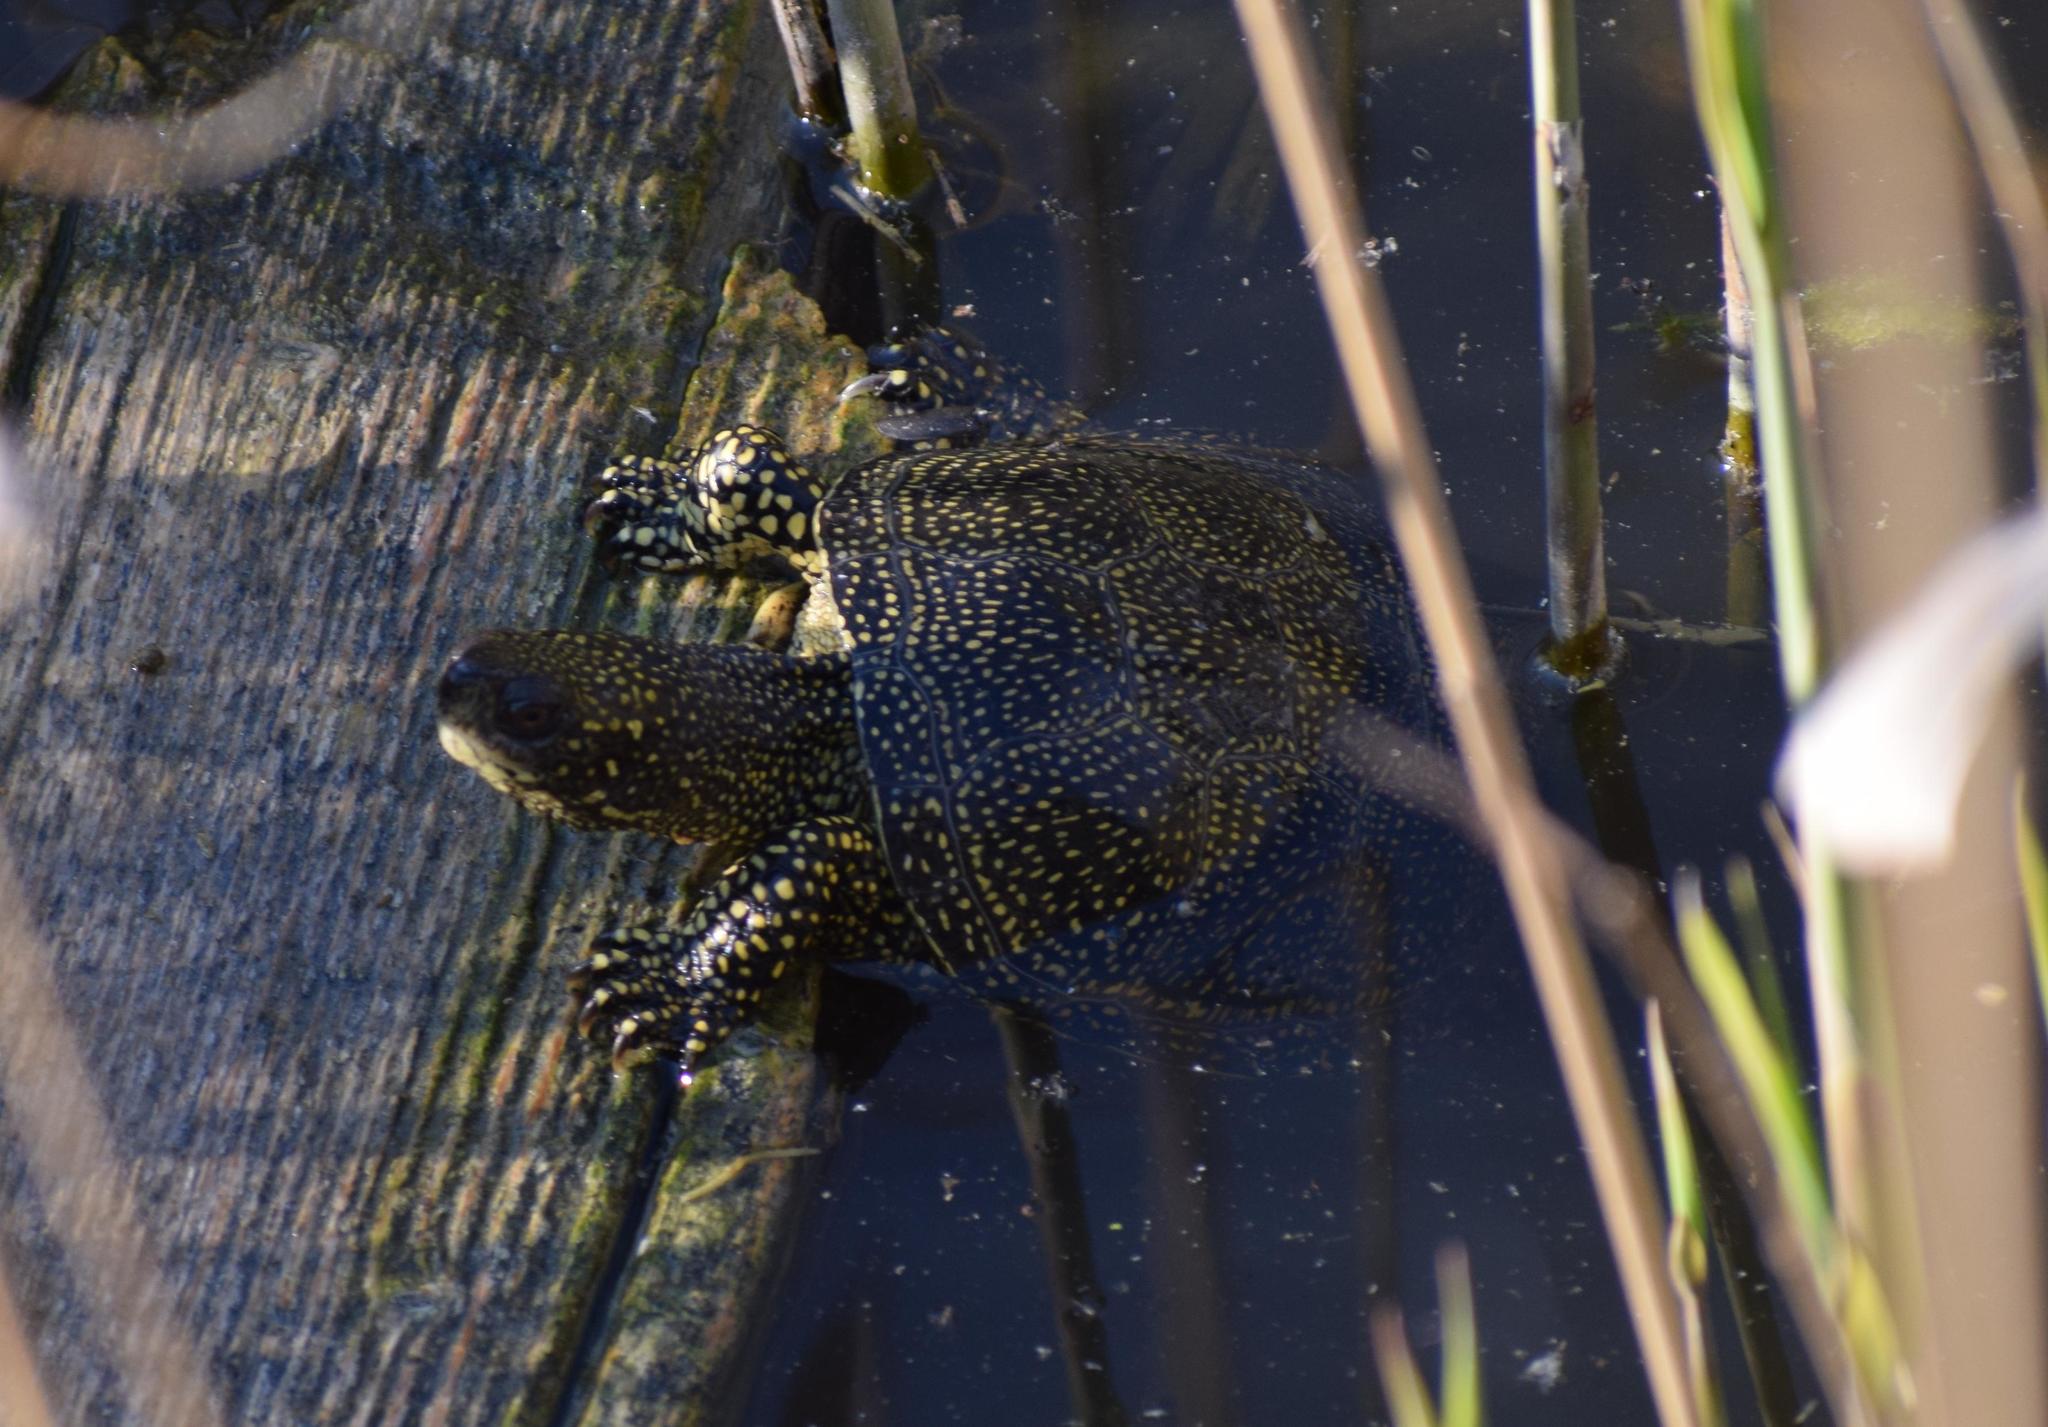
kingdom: Animalia
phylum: Chordata
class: Testudines
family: Emydidae
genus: Emys
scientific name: Emys orbicularis
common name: European pond turtle
